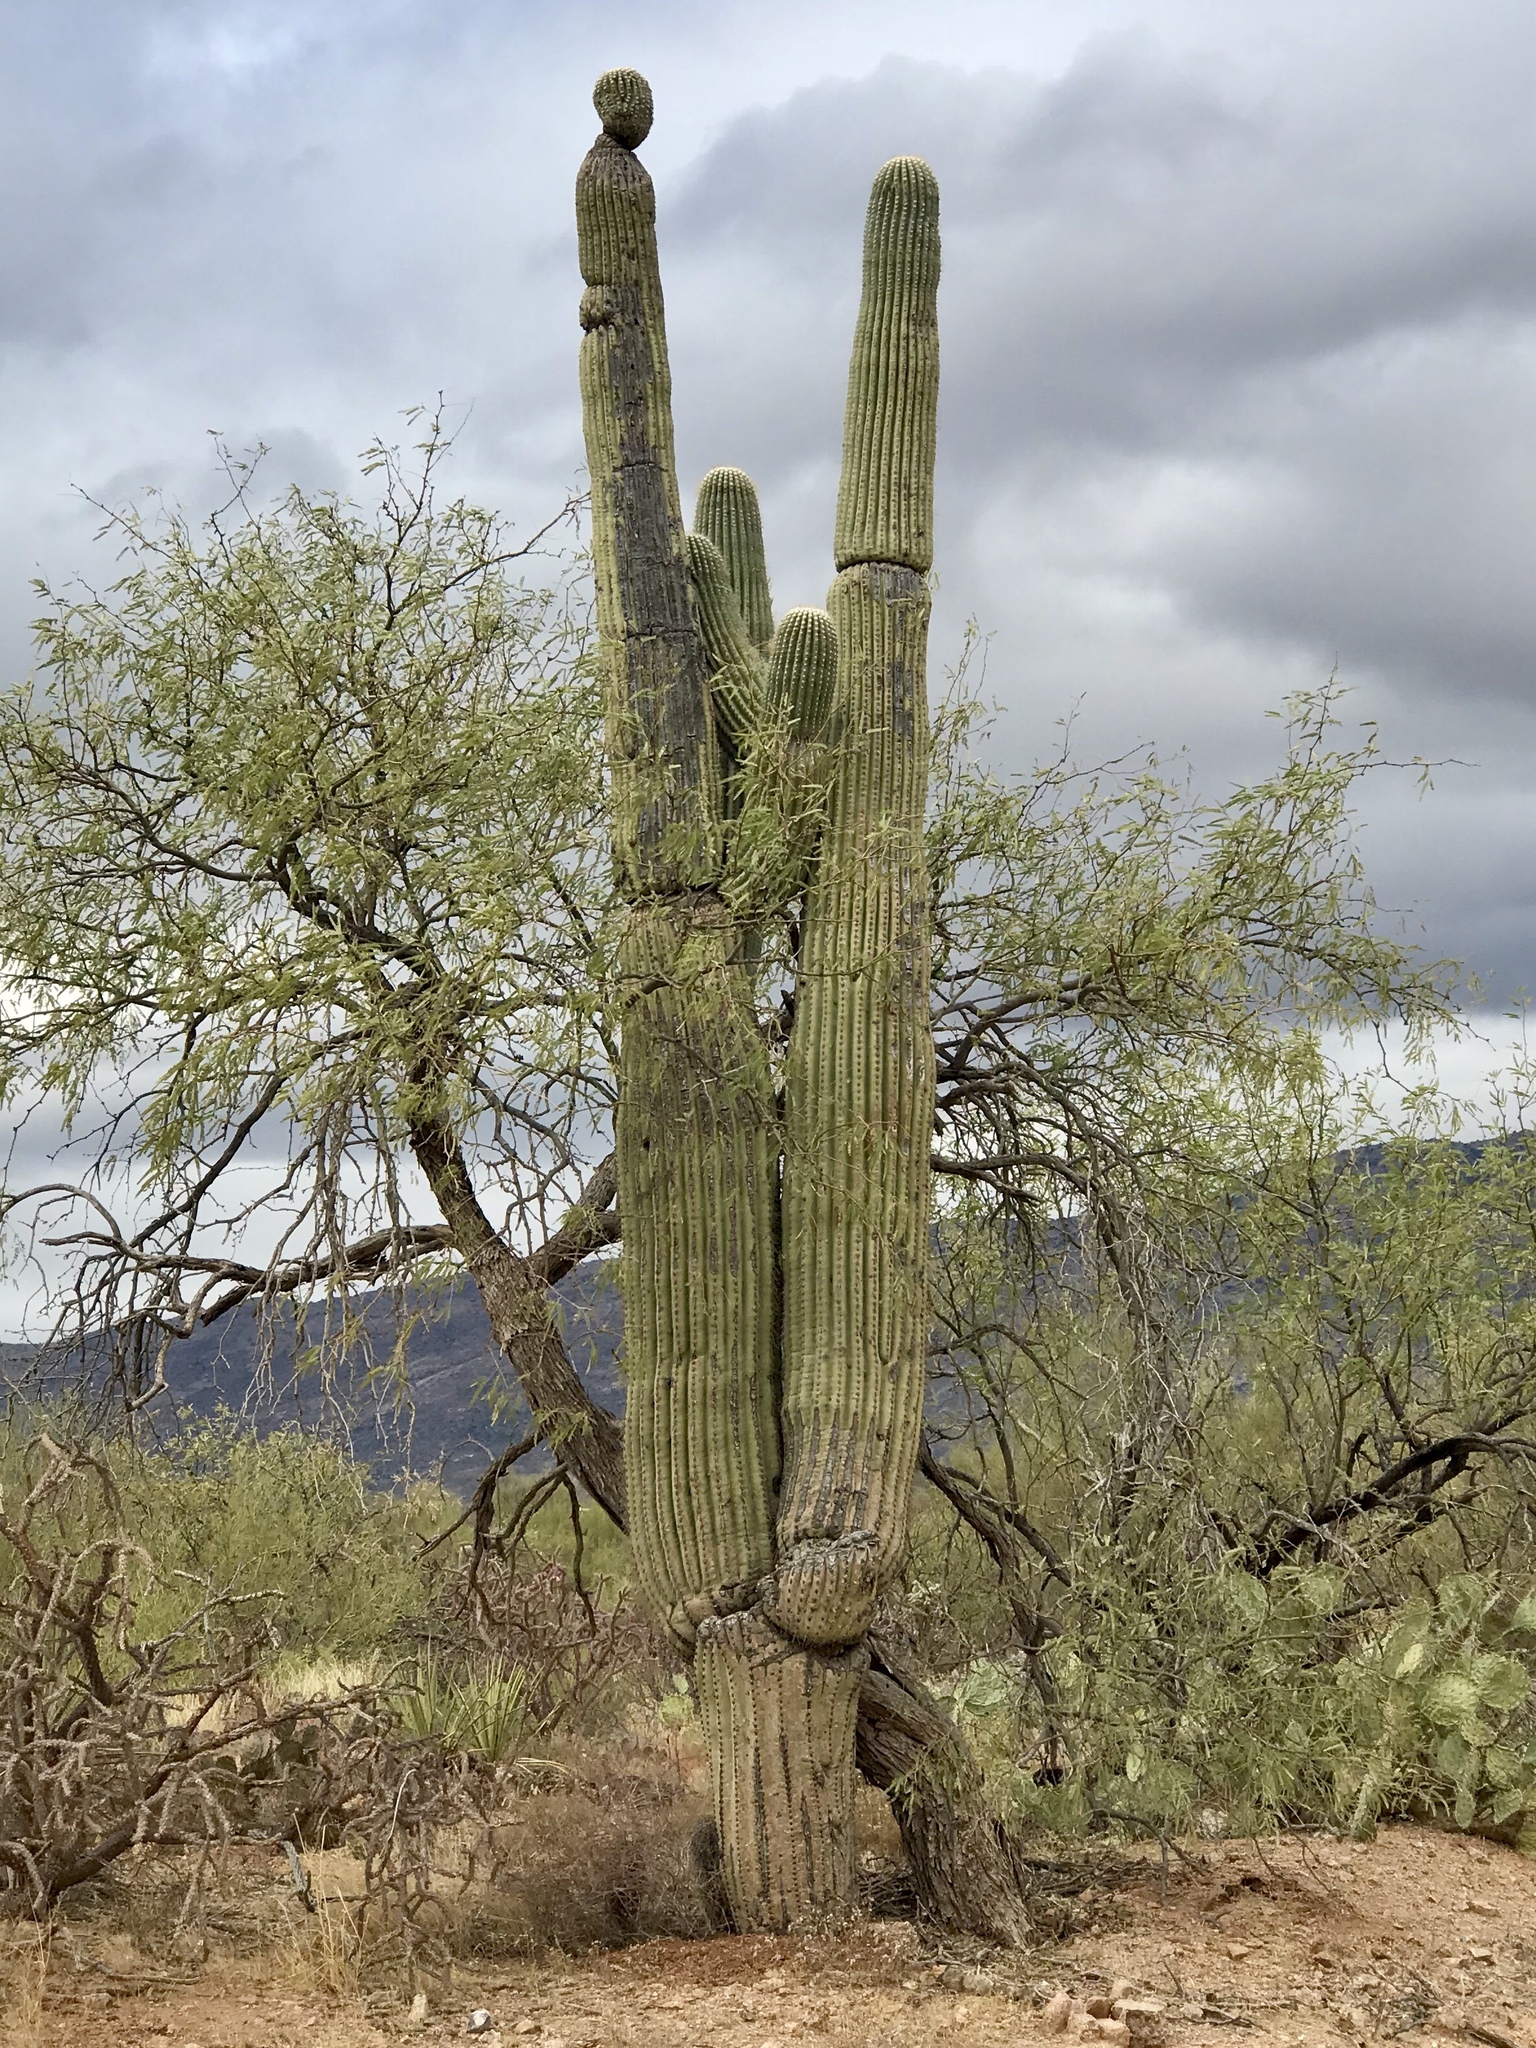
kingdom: Plantae
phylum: Tracheophyta
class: Magnoliopsida
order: Caryophyllales
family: Cactaceae
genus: Carnegiea
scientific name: Carnegiea gigantea
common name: Saguaro
